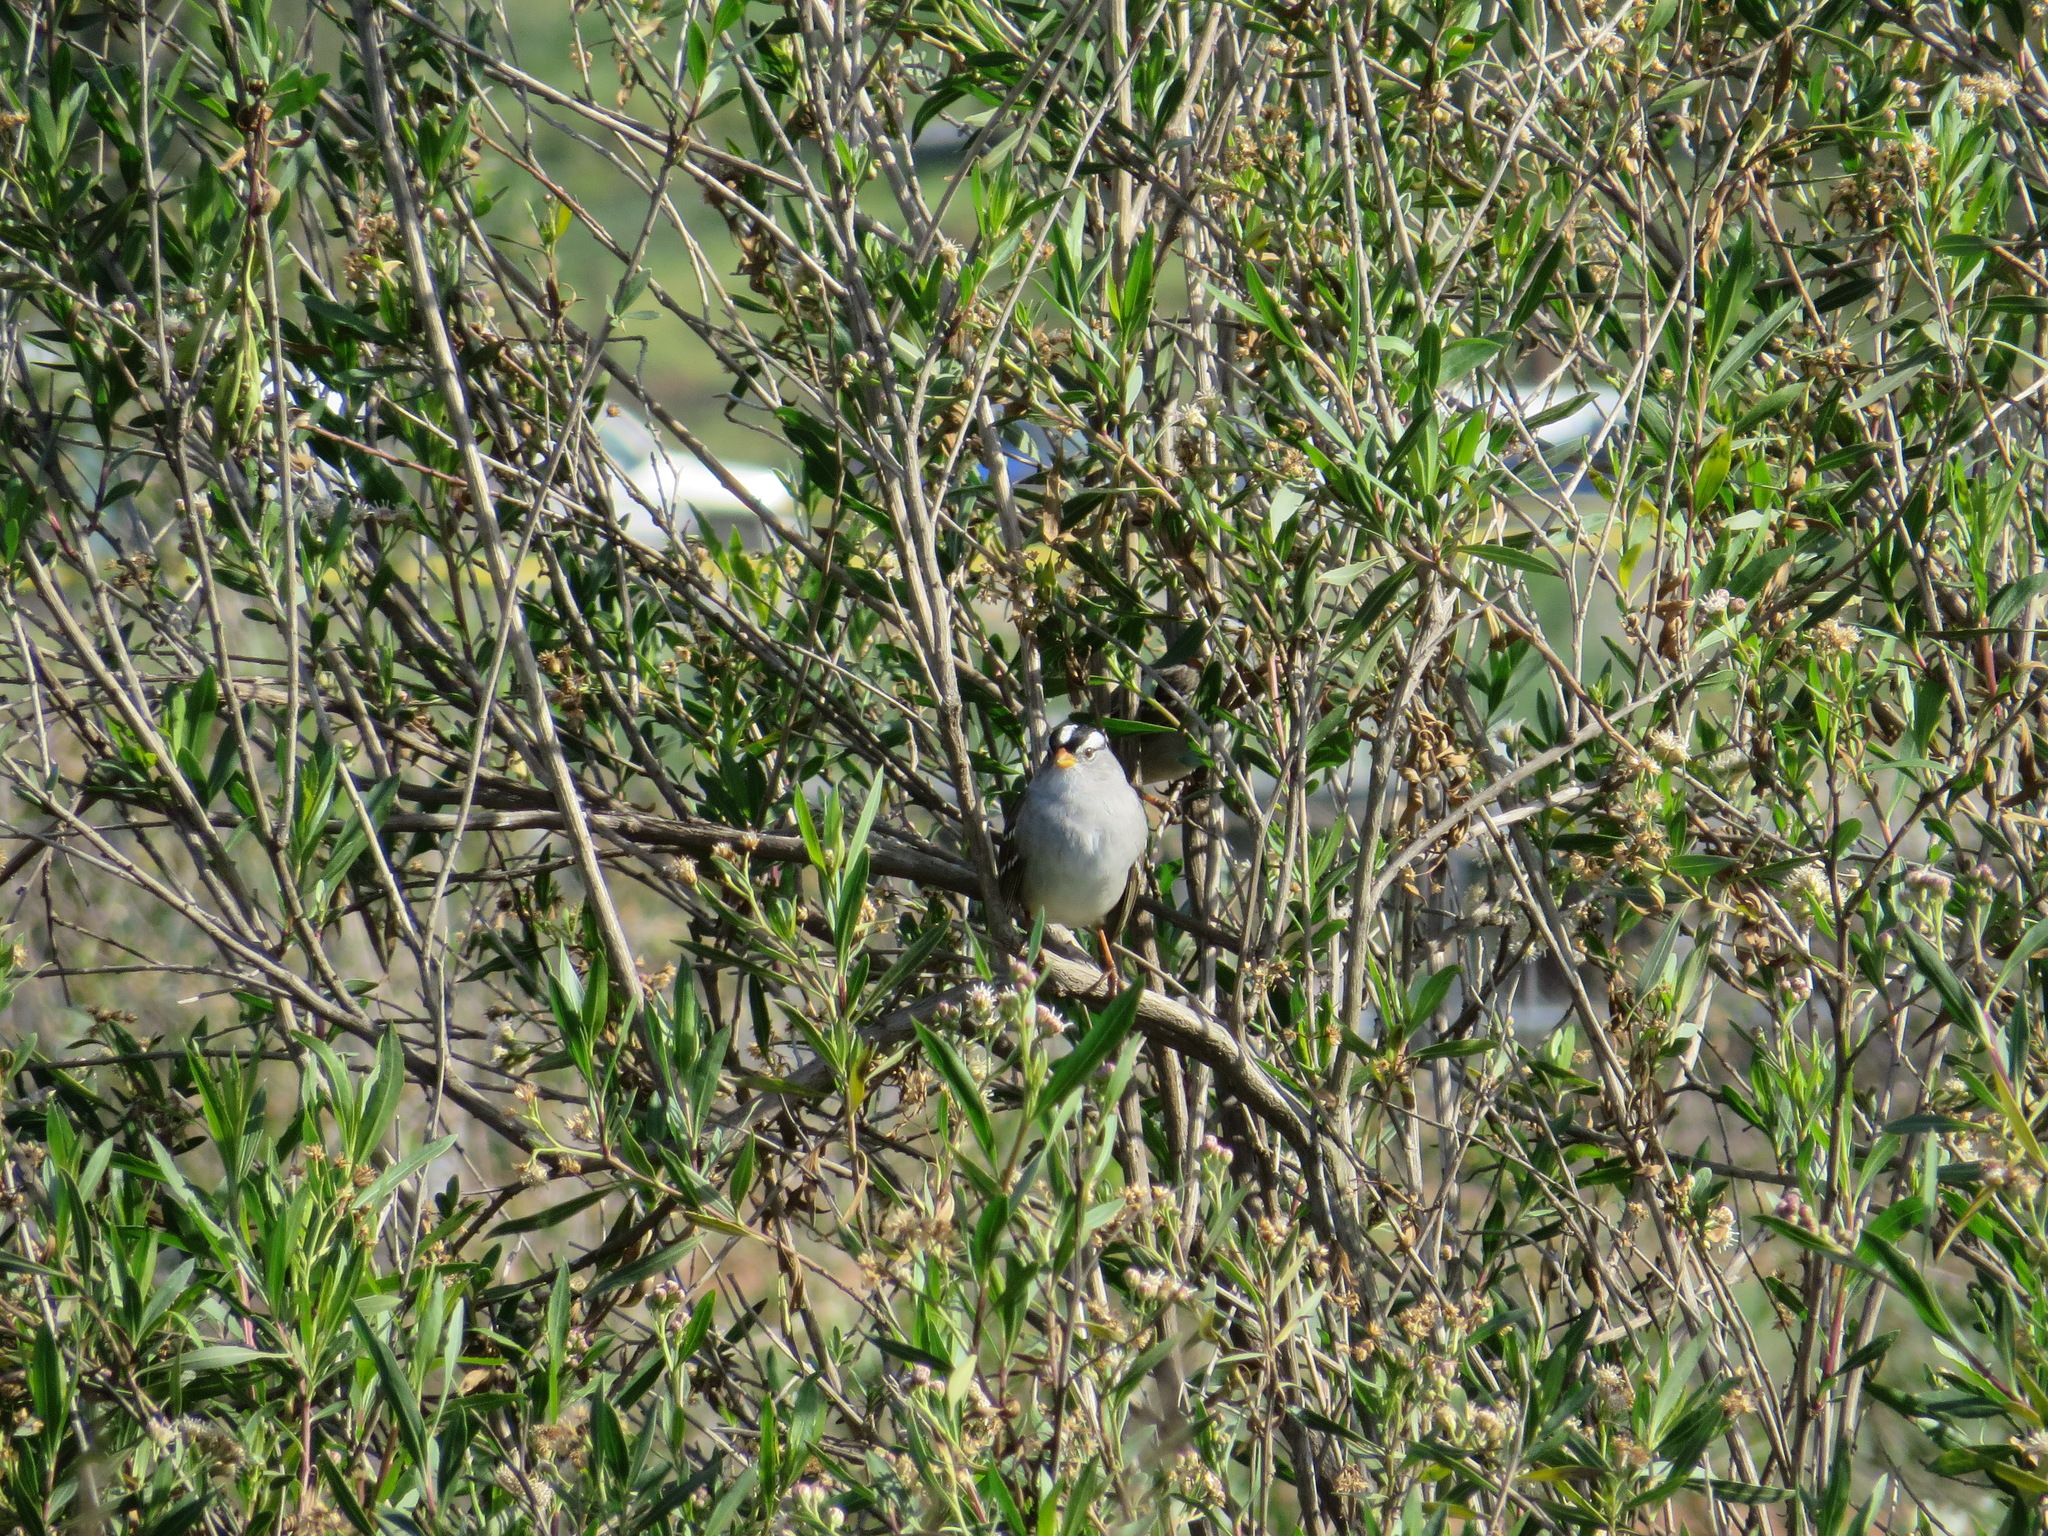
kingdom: Animalia
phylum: Chordata
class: Aves
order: Passeriformes
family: Passerellidae
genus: Zonotrichia
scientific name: Zonotrichia leucophrys
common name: White-crowned sparrow
